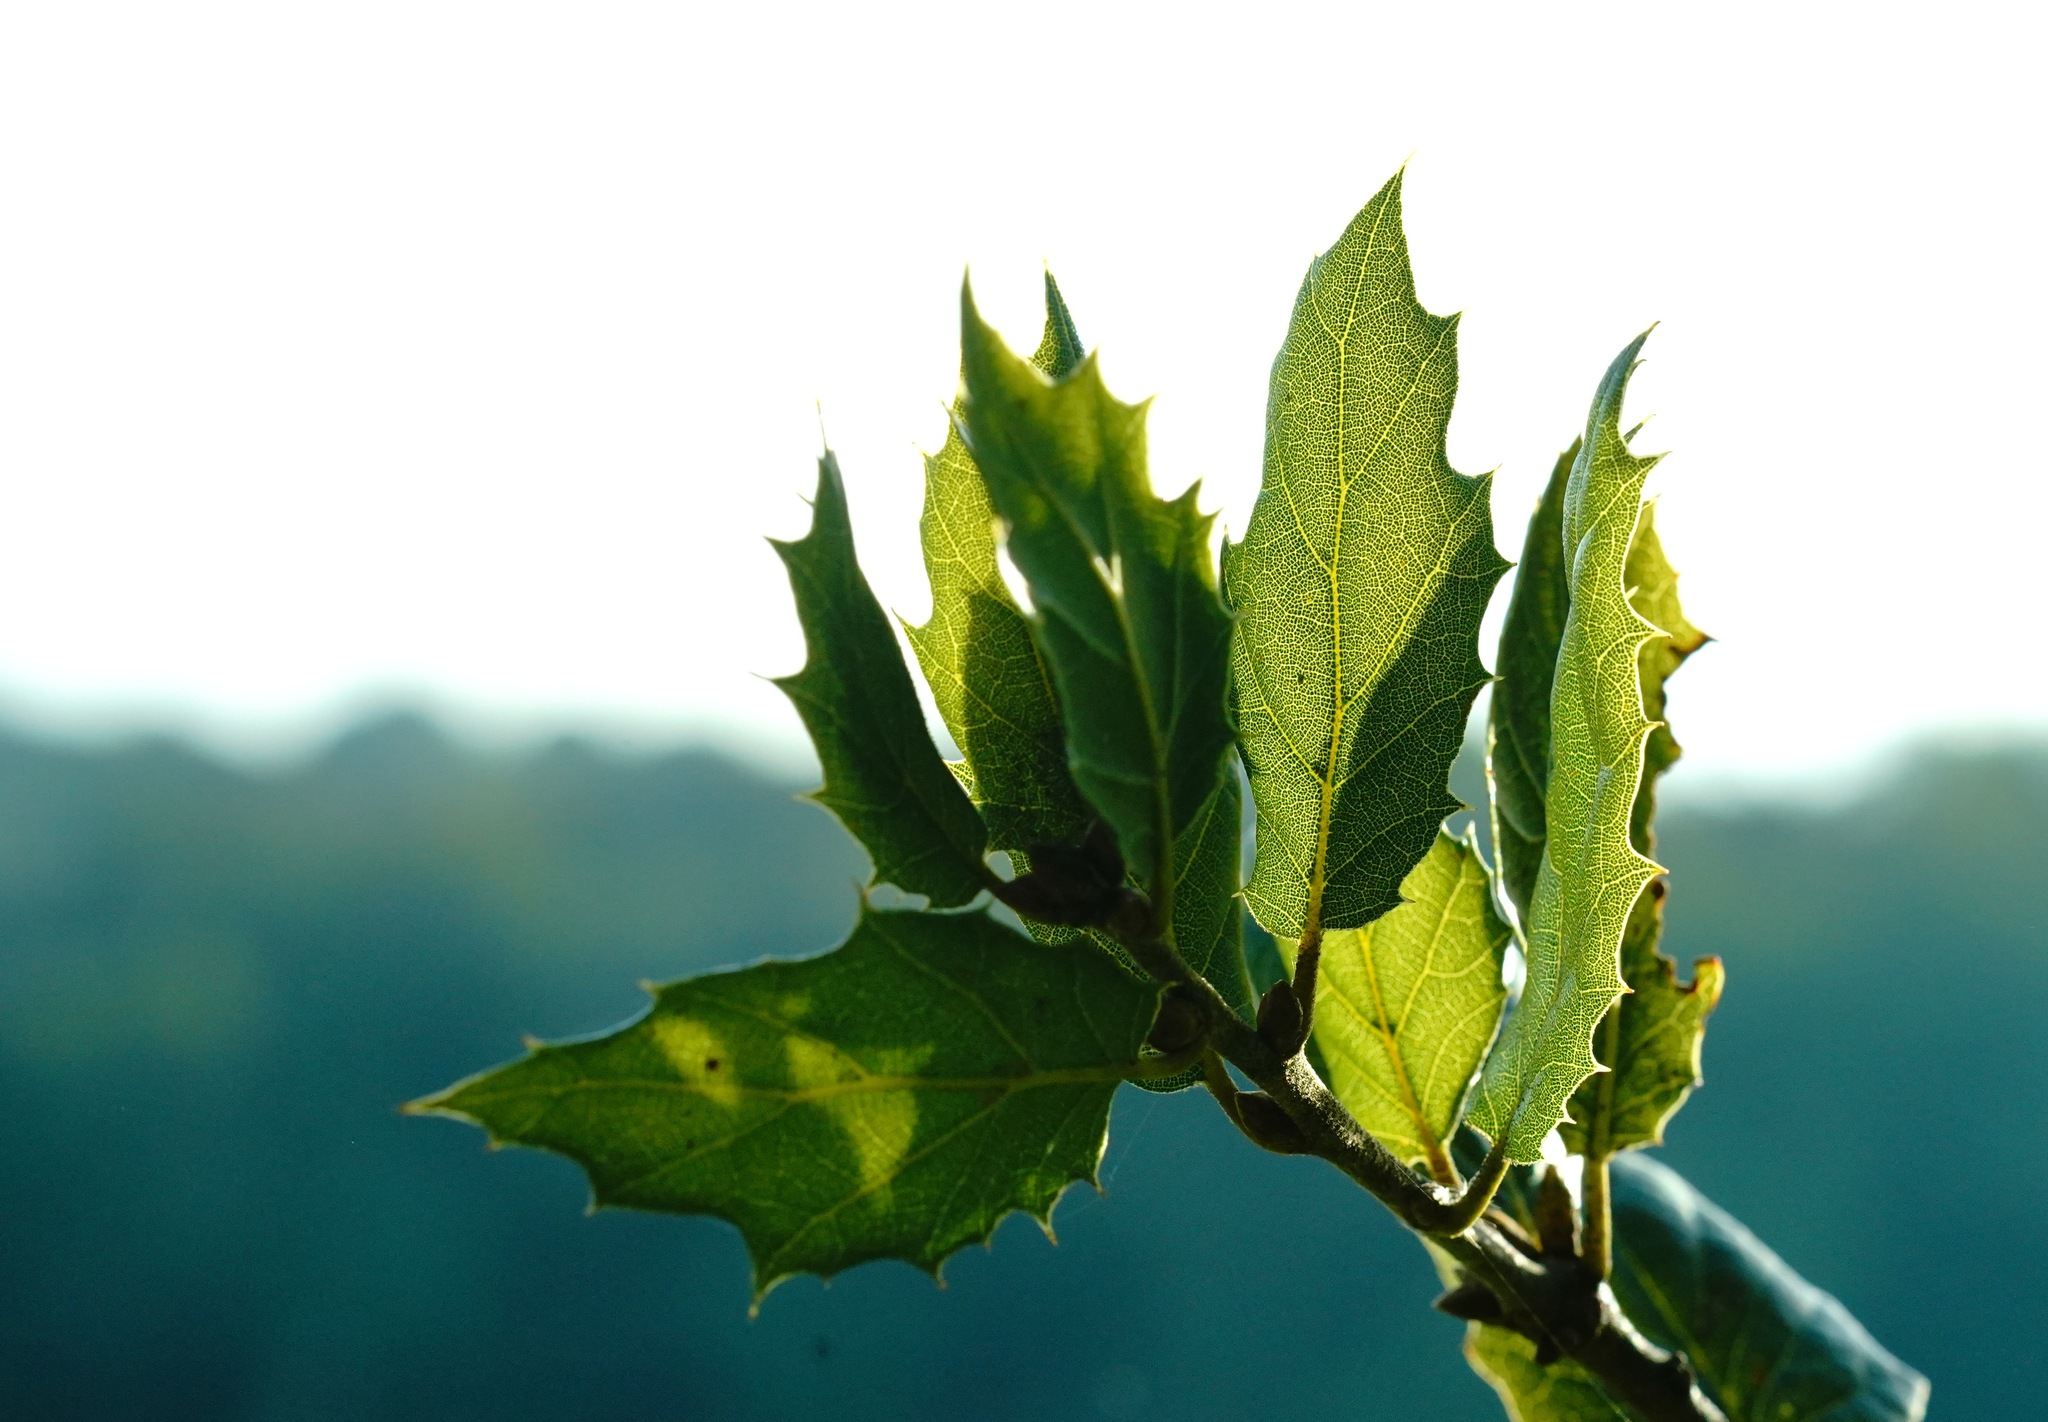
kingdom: Plantae
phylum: Tracheophyta
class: Magnoliopsida
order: Fagales
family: Fagaceae
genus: Quercus
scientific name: Quercus agrifolia
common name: California live oak
